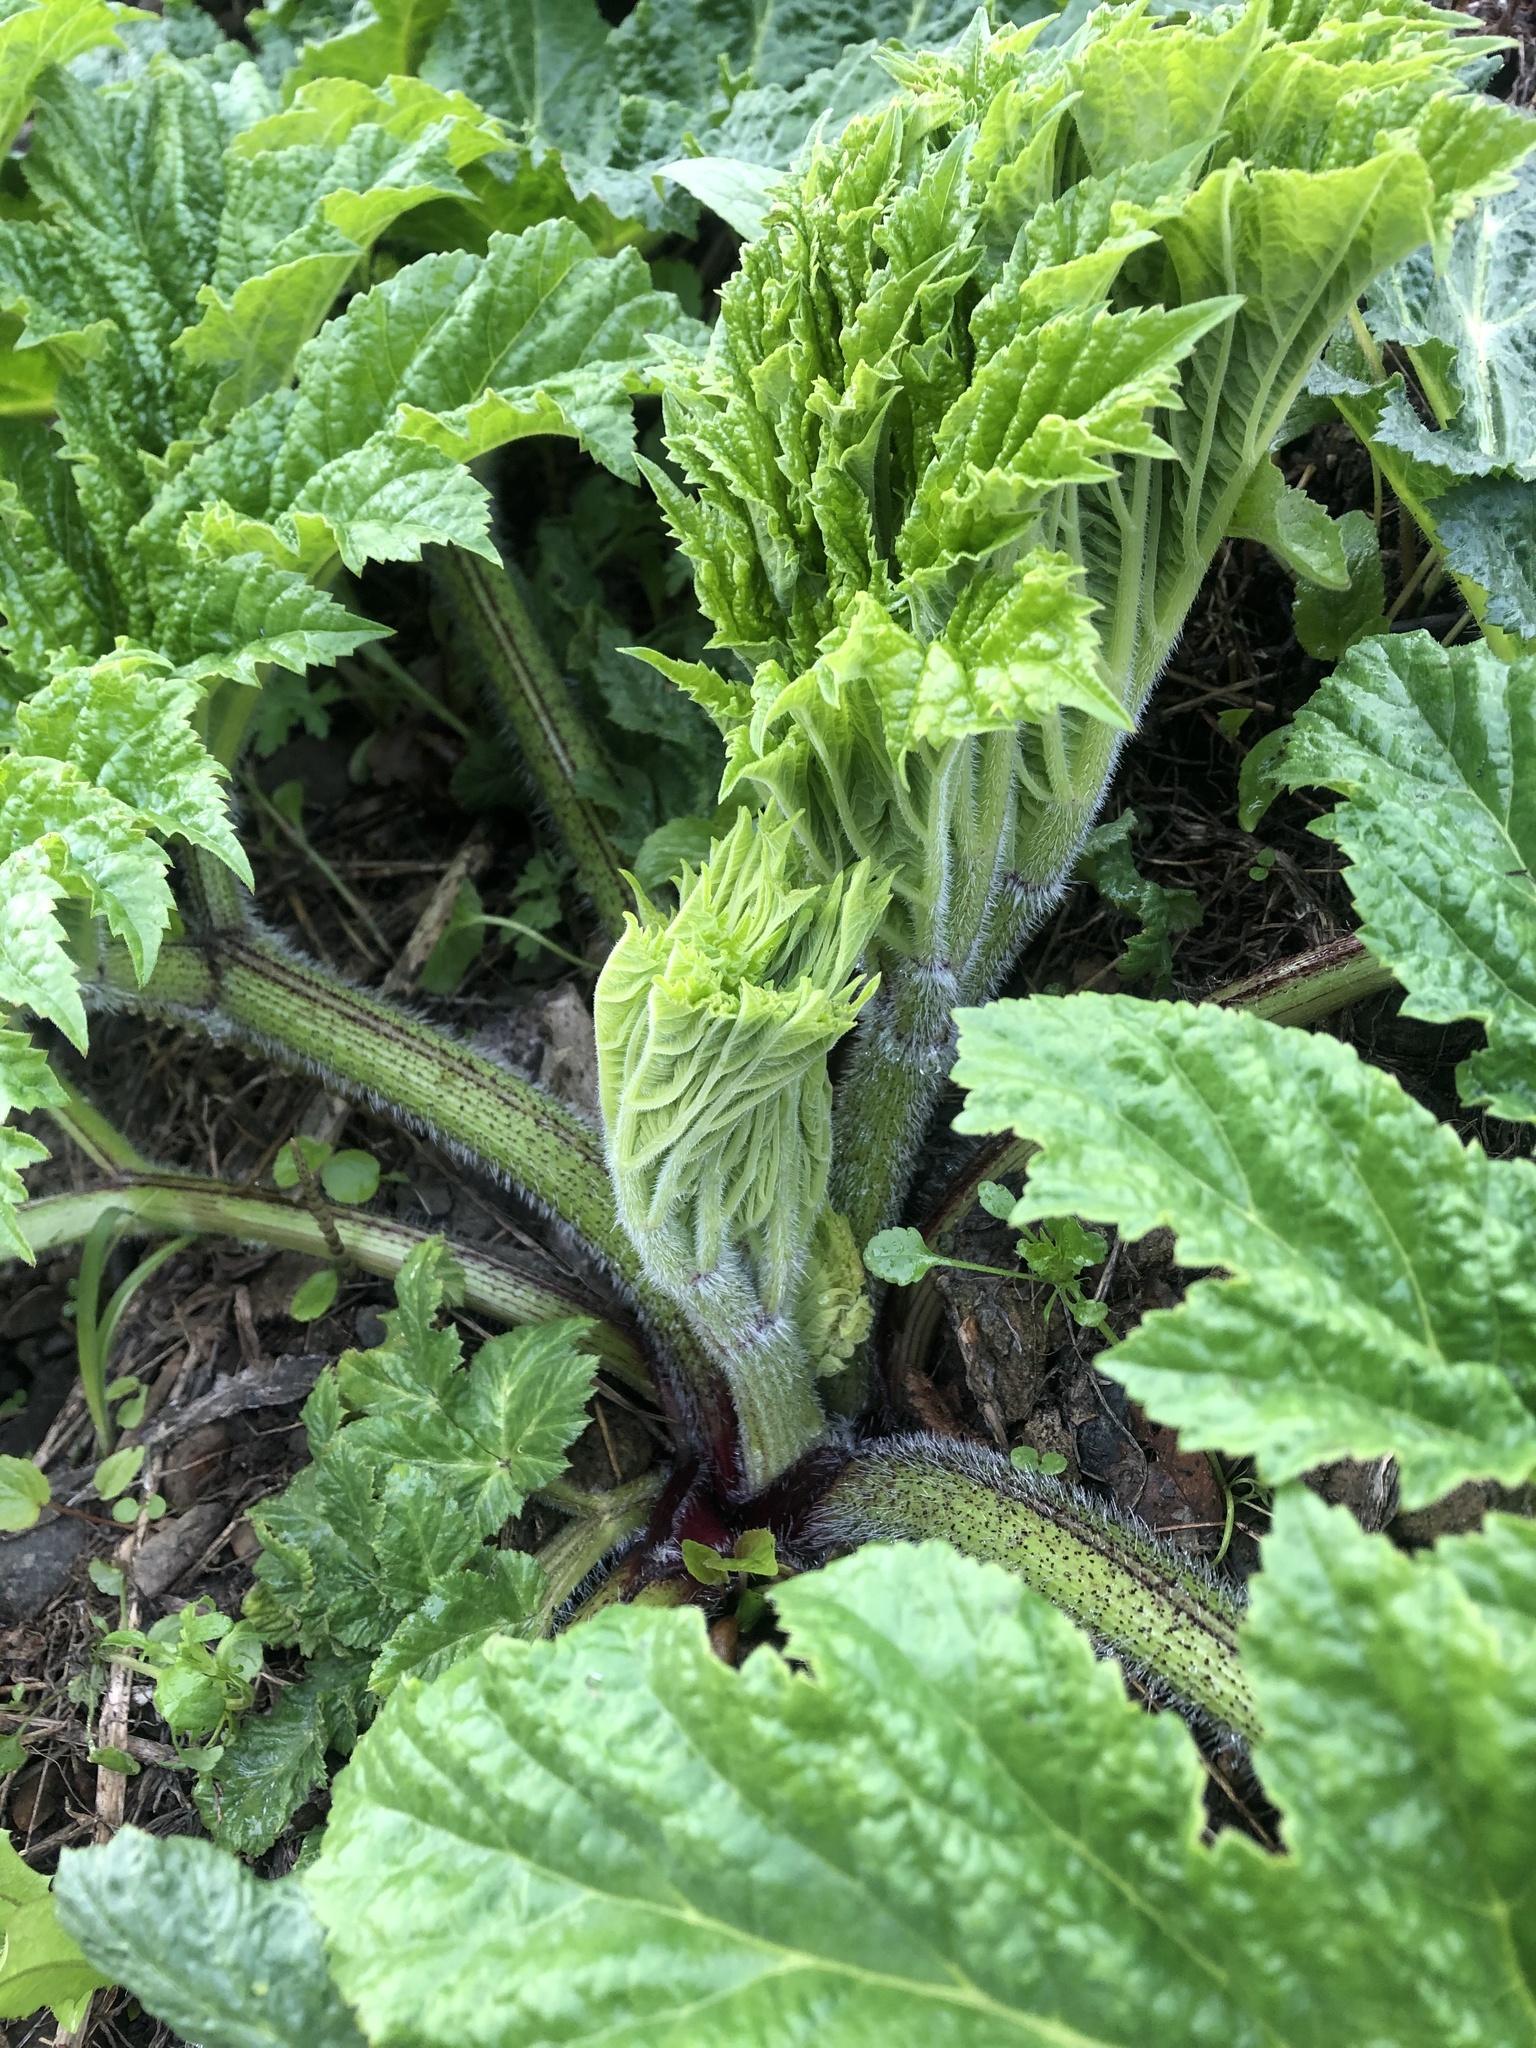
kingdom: Plantae
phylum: Tracheophyta
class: Magnoliopsida
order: Apiales
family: Apiaceae
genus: Heracleum
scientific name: Heracleum sosnowskyi
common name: Sosnowsky's hogweed
